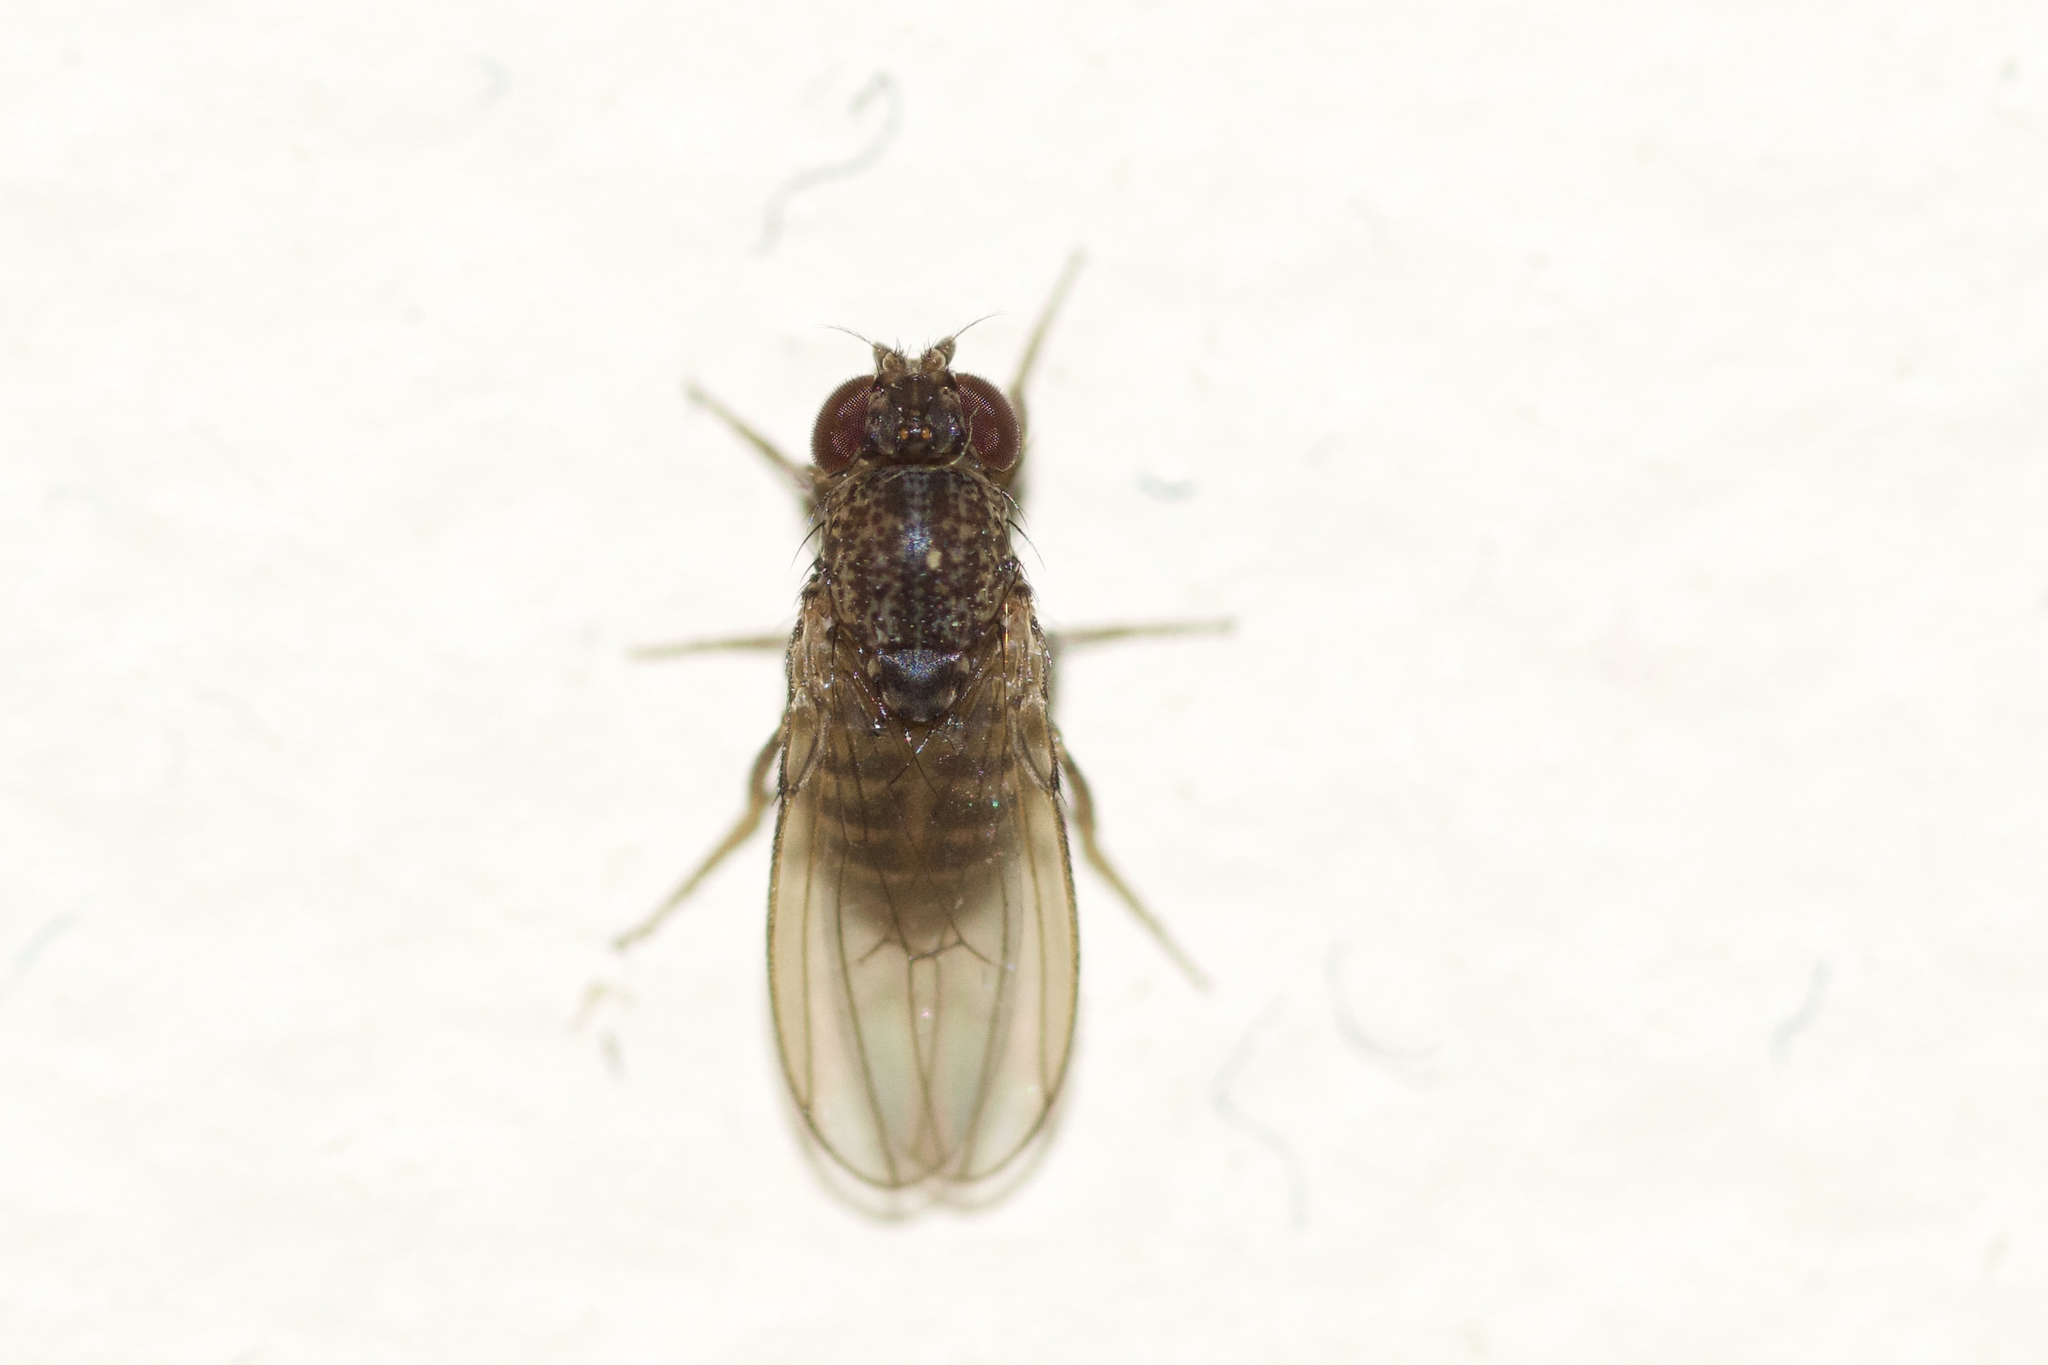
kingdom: Animalia
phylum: Arthropoda
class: Insecta
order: Diptera
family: Drosophilidae
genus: Drosophila
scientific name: Drosophila repleta
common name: Pomace fly
